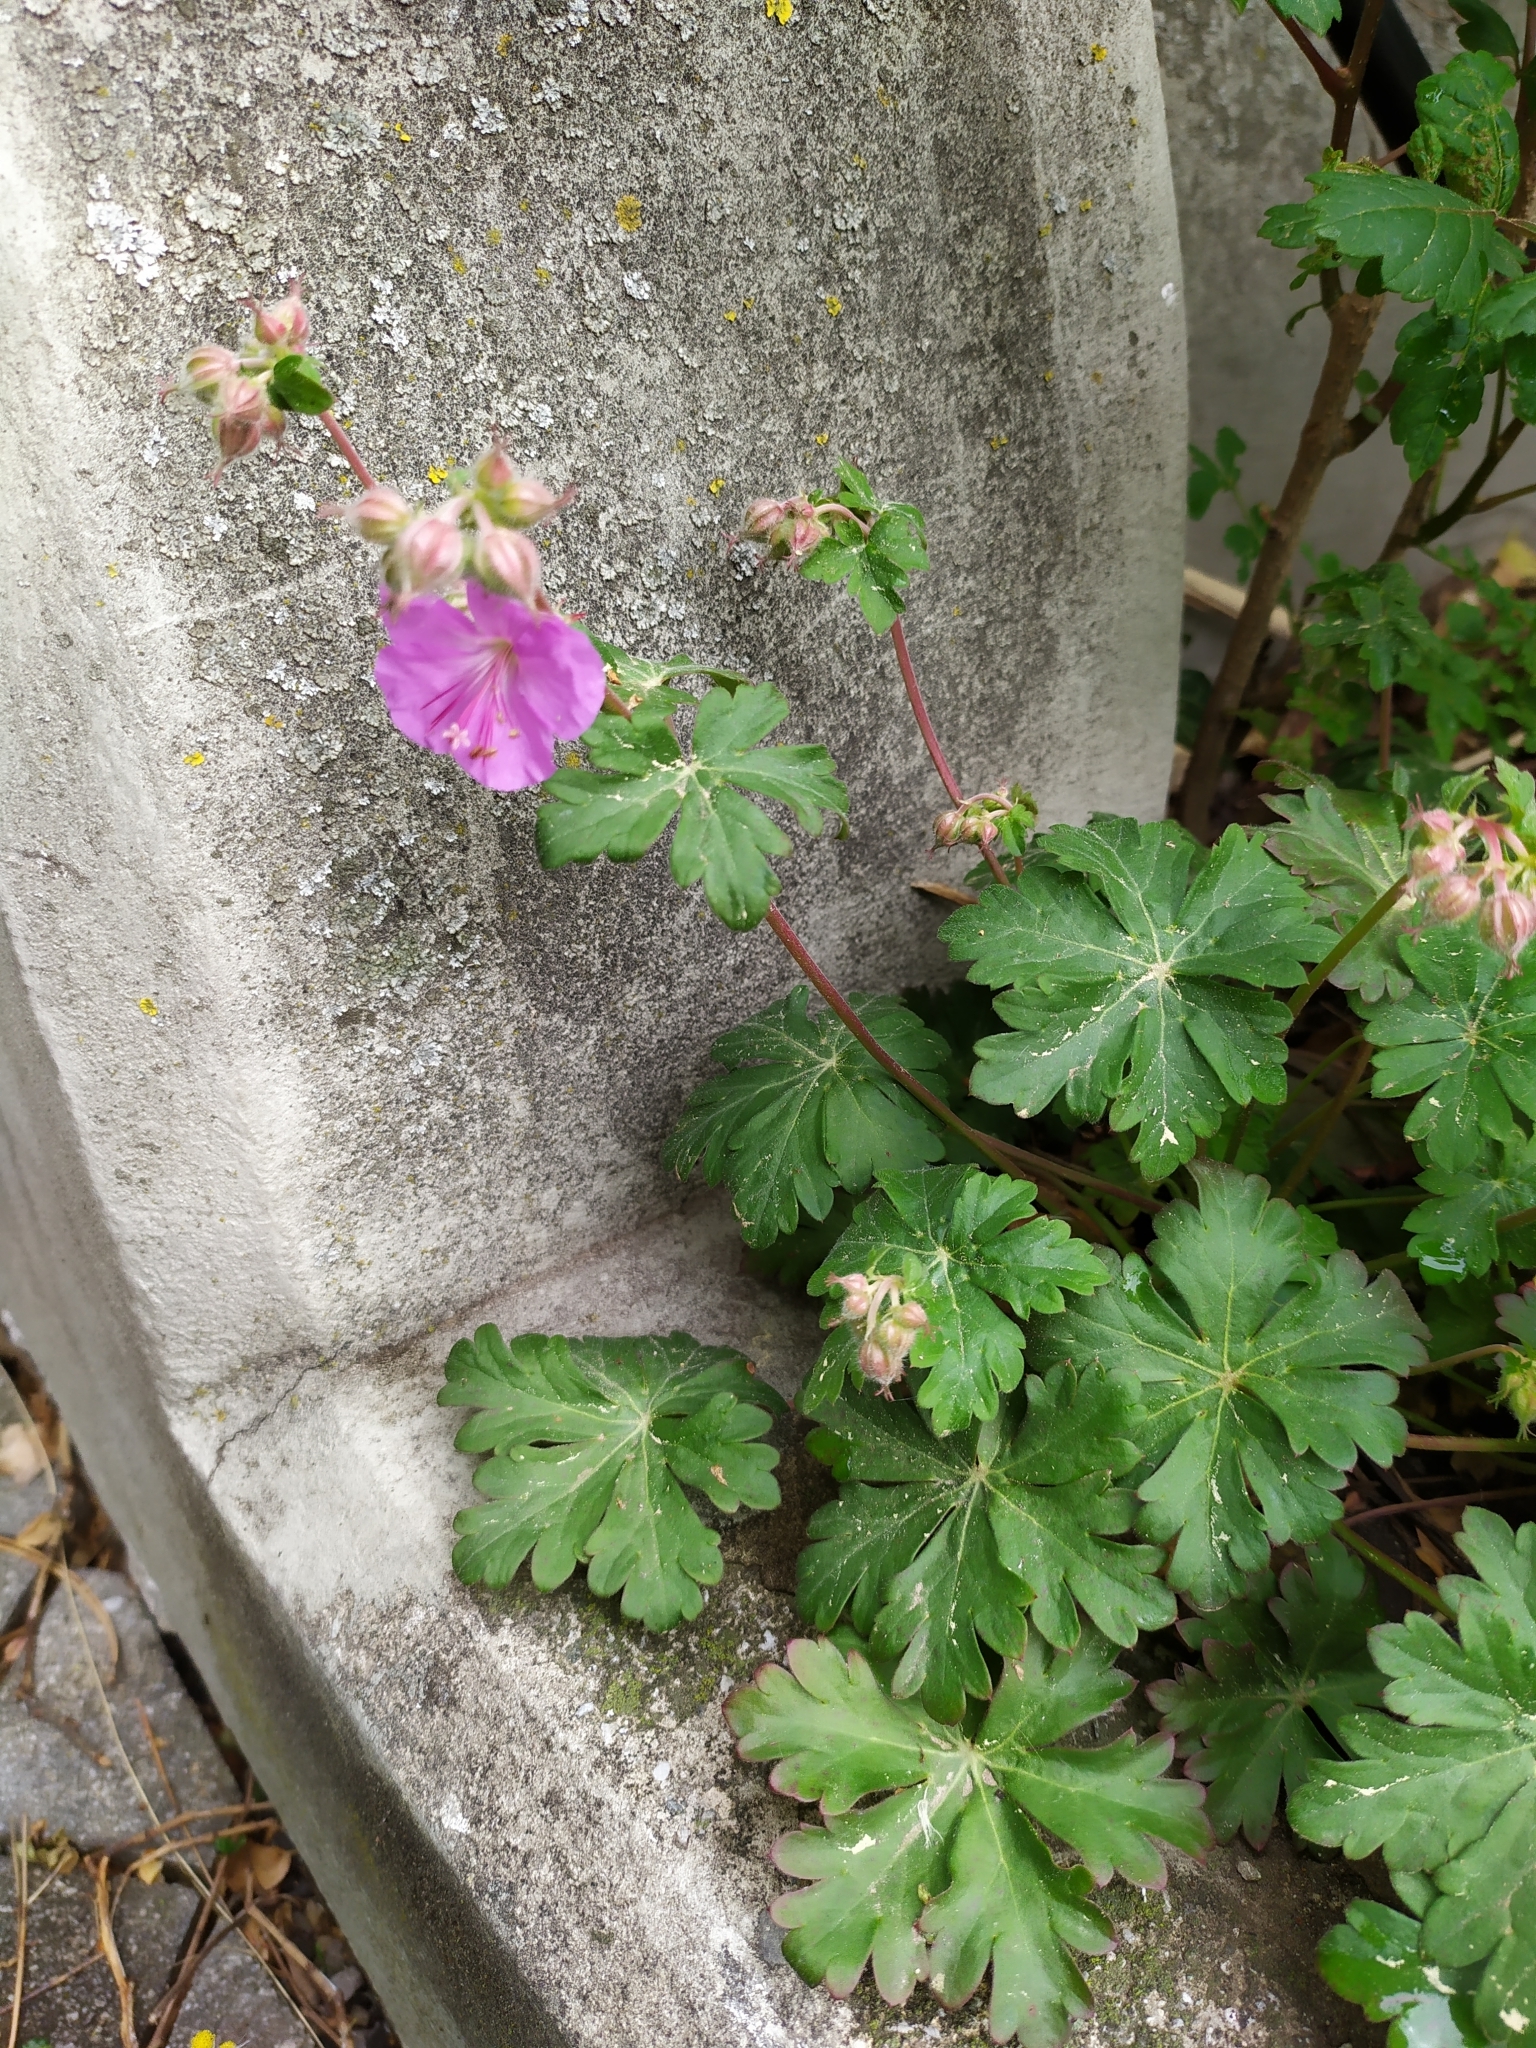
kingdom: Plantae
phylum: Tracheophyta
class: Magnoliopsida
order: Geraniales
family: Geraniaceae
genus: Geranium
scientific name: Geranium macrorrhizum
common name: Rock crane's-bill
